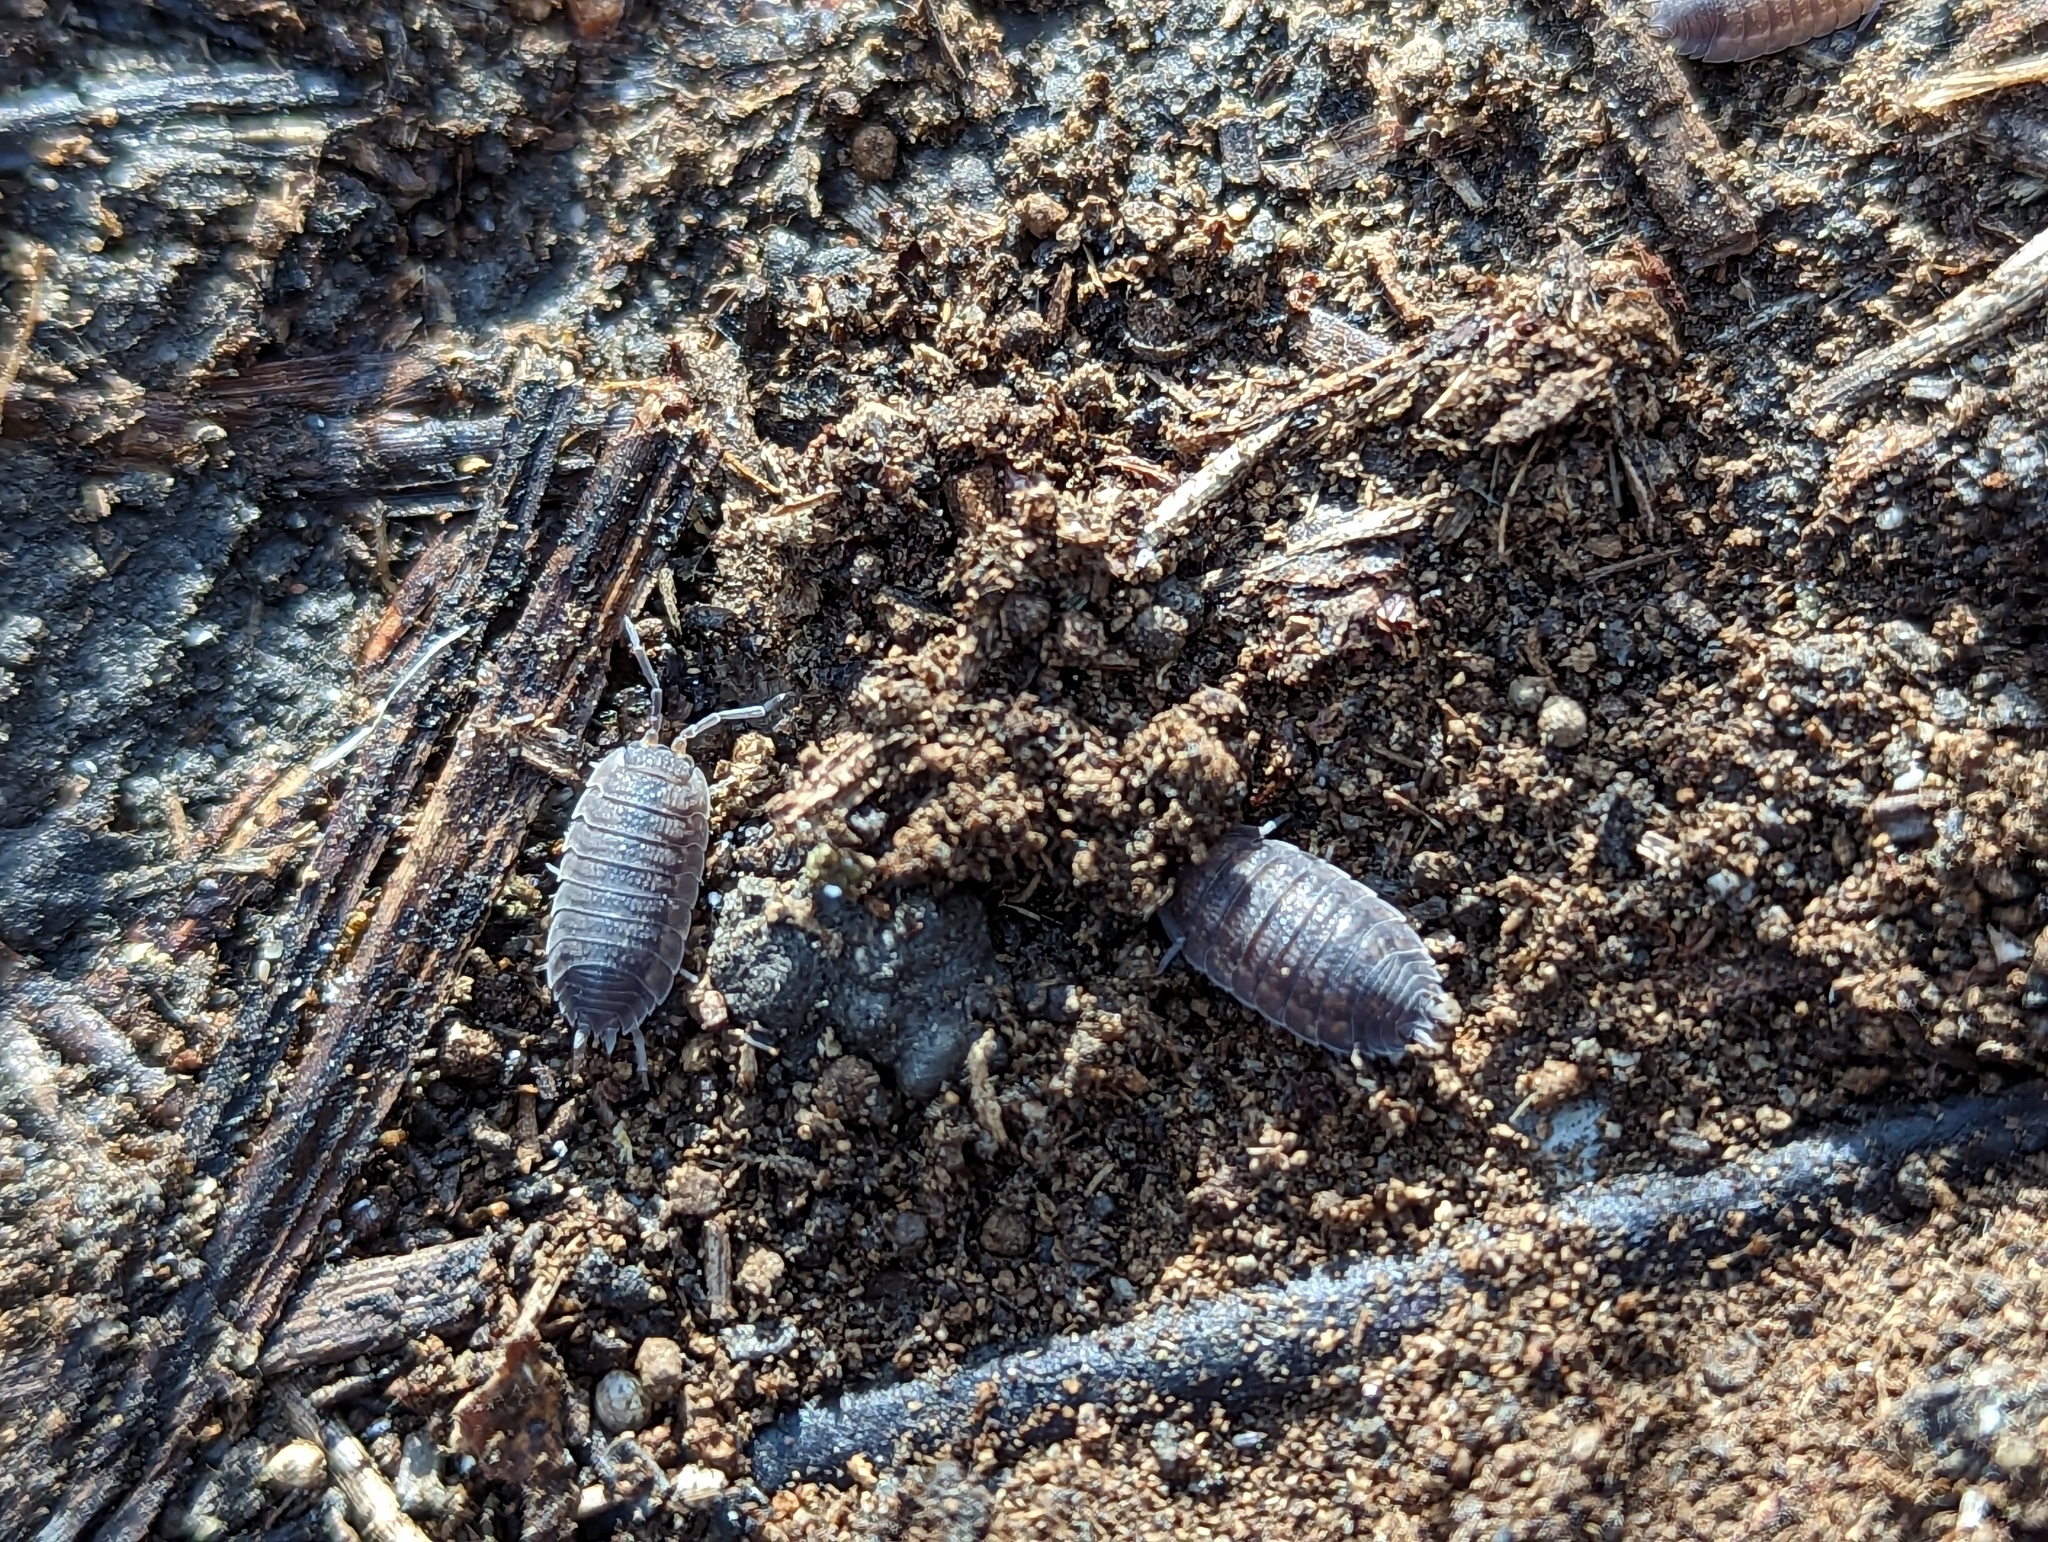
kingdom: Animalia
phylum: Arthropoda
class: Malacostraca
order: Isopoda
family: Porcellionidae
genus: Porcellio
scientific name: Porcellio scaber
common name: Common rough woodlouse
